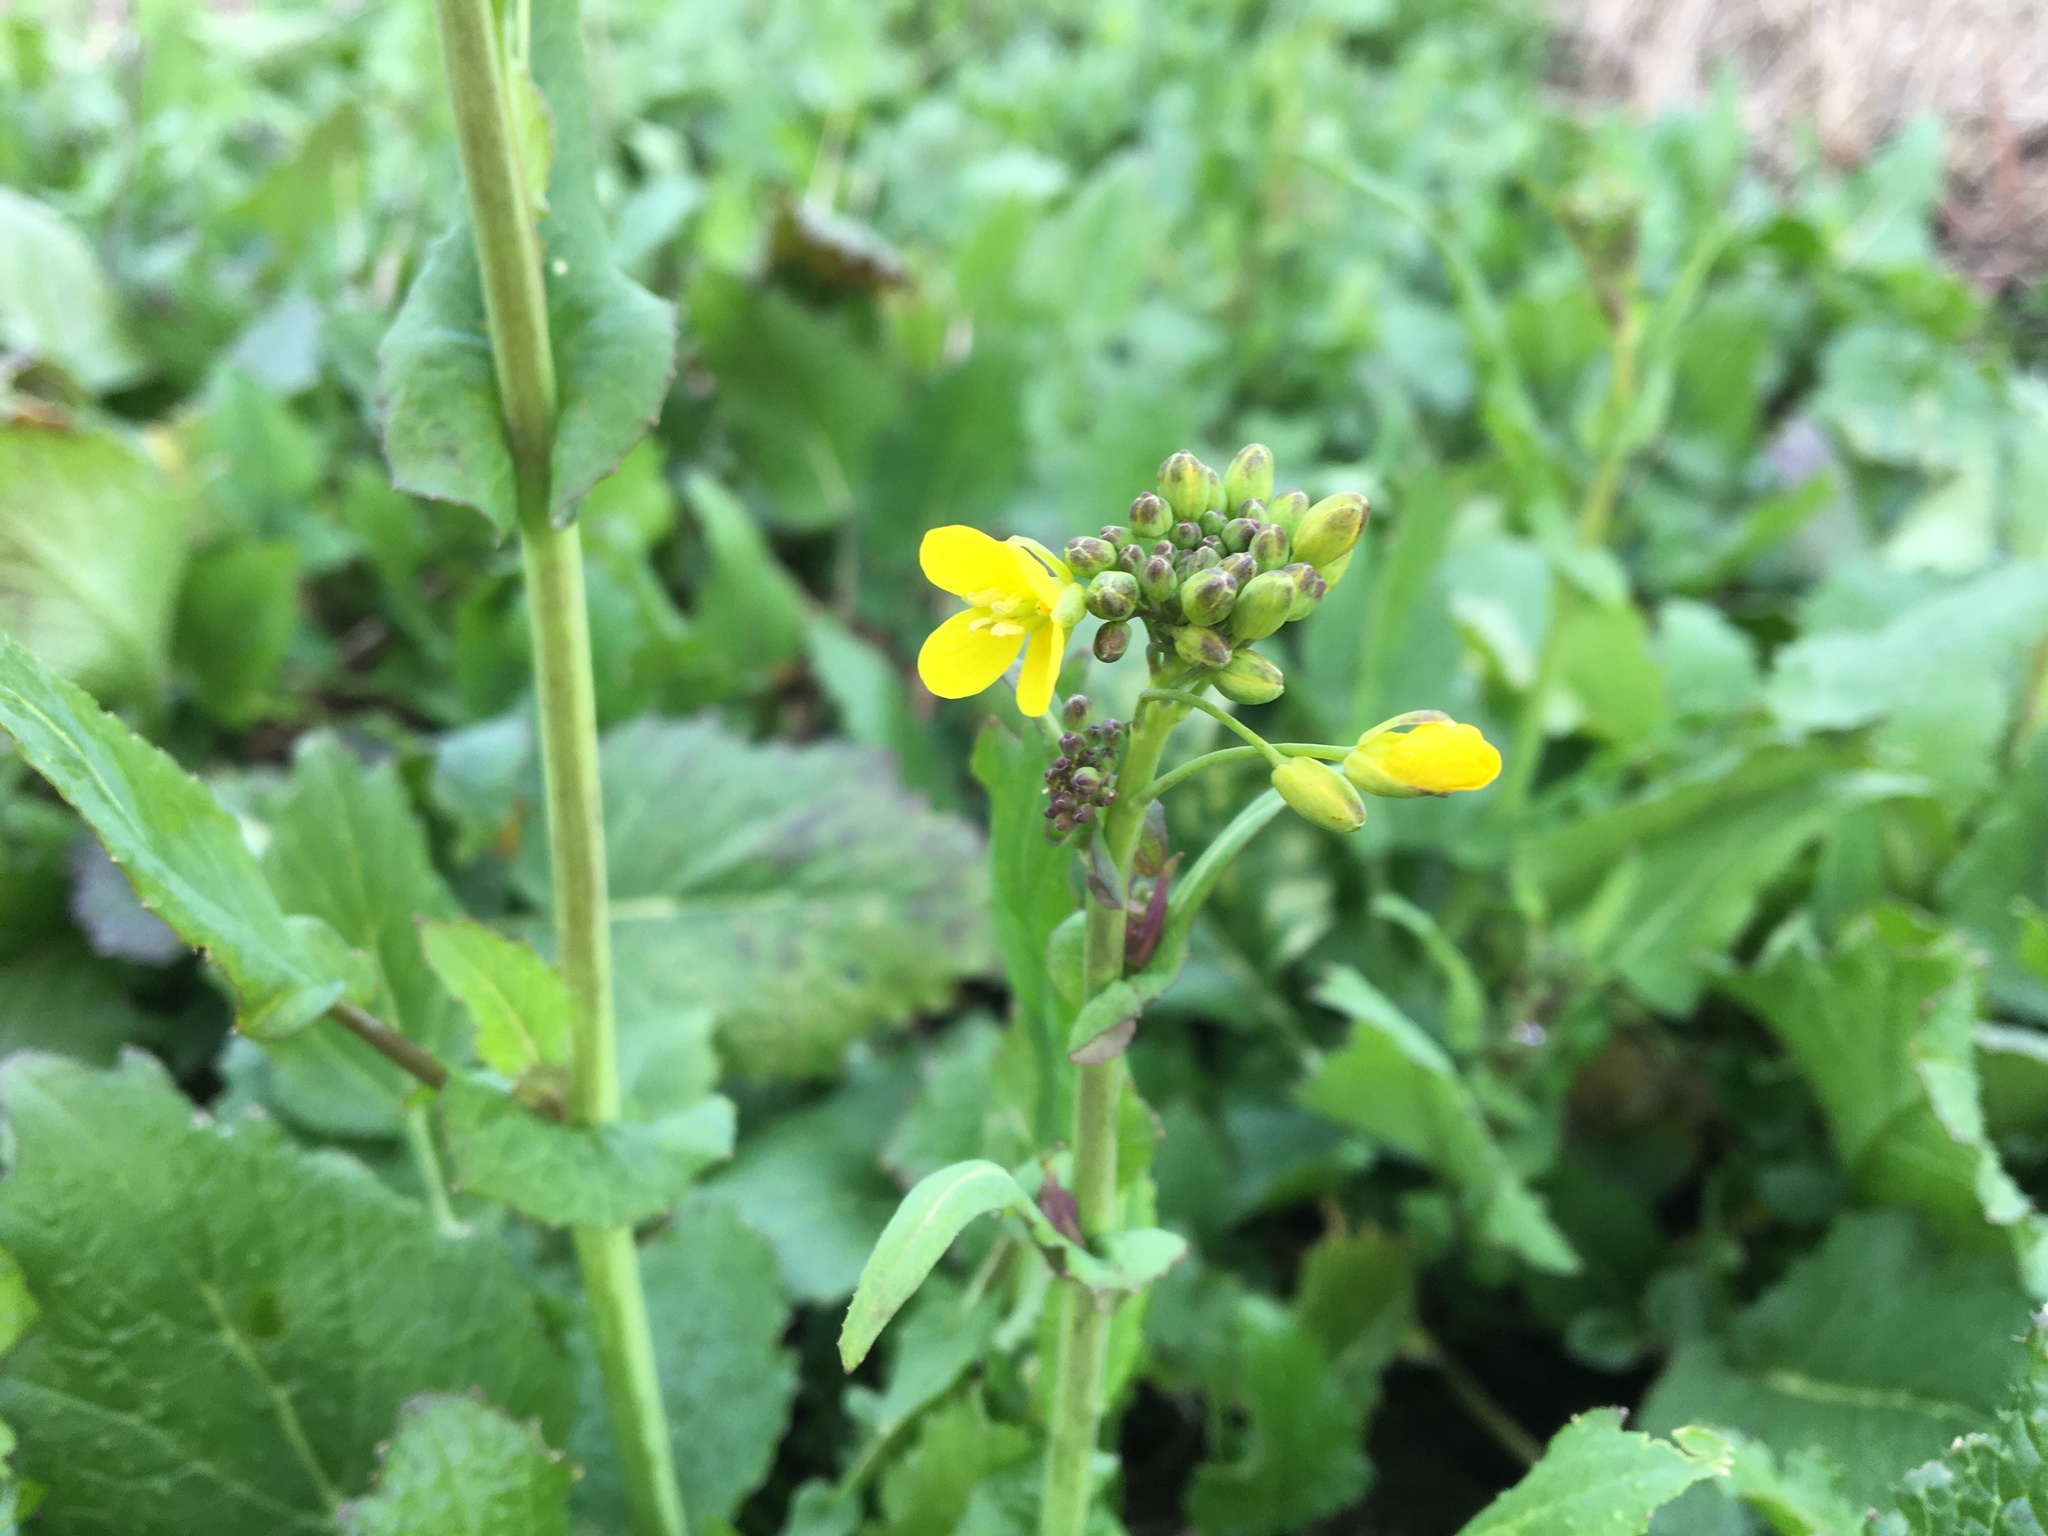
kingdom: Plantae
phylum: Tracheophyta
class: Magnoliopsida
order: Brassicales
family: Brassicaceae
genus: Brassica
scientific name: Brassica rapa
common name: Field mustard
